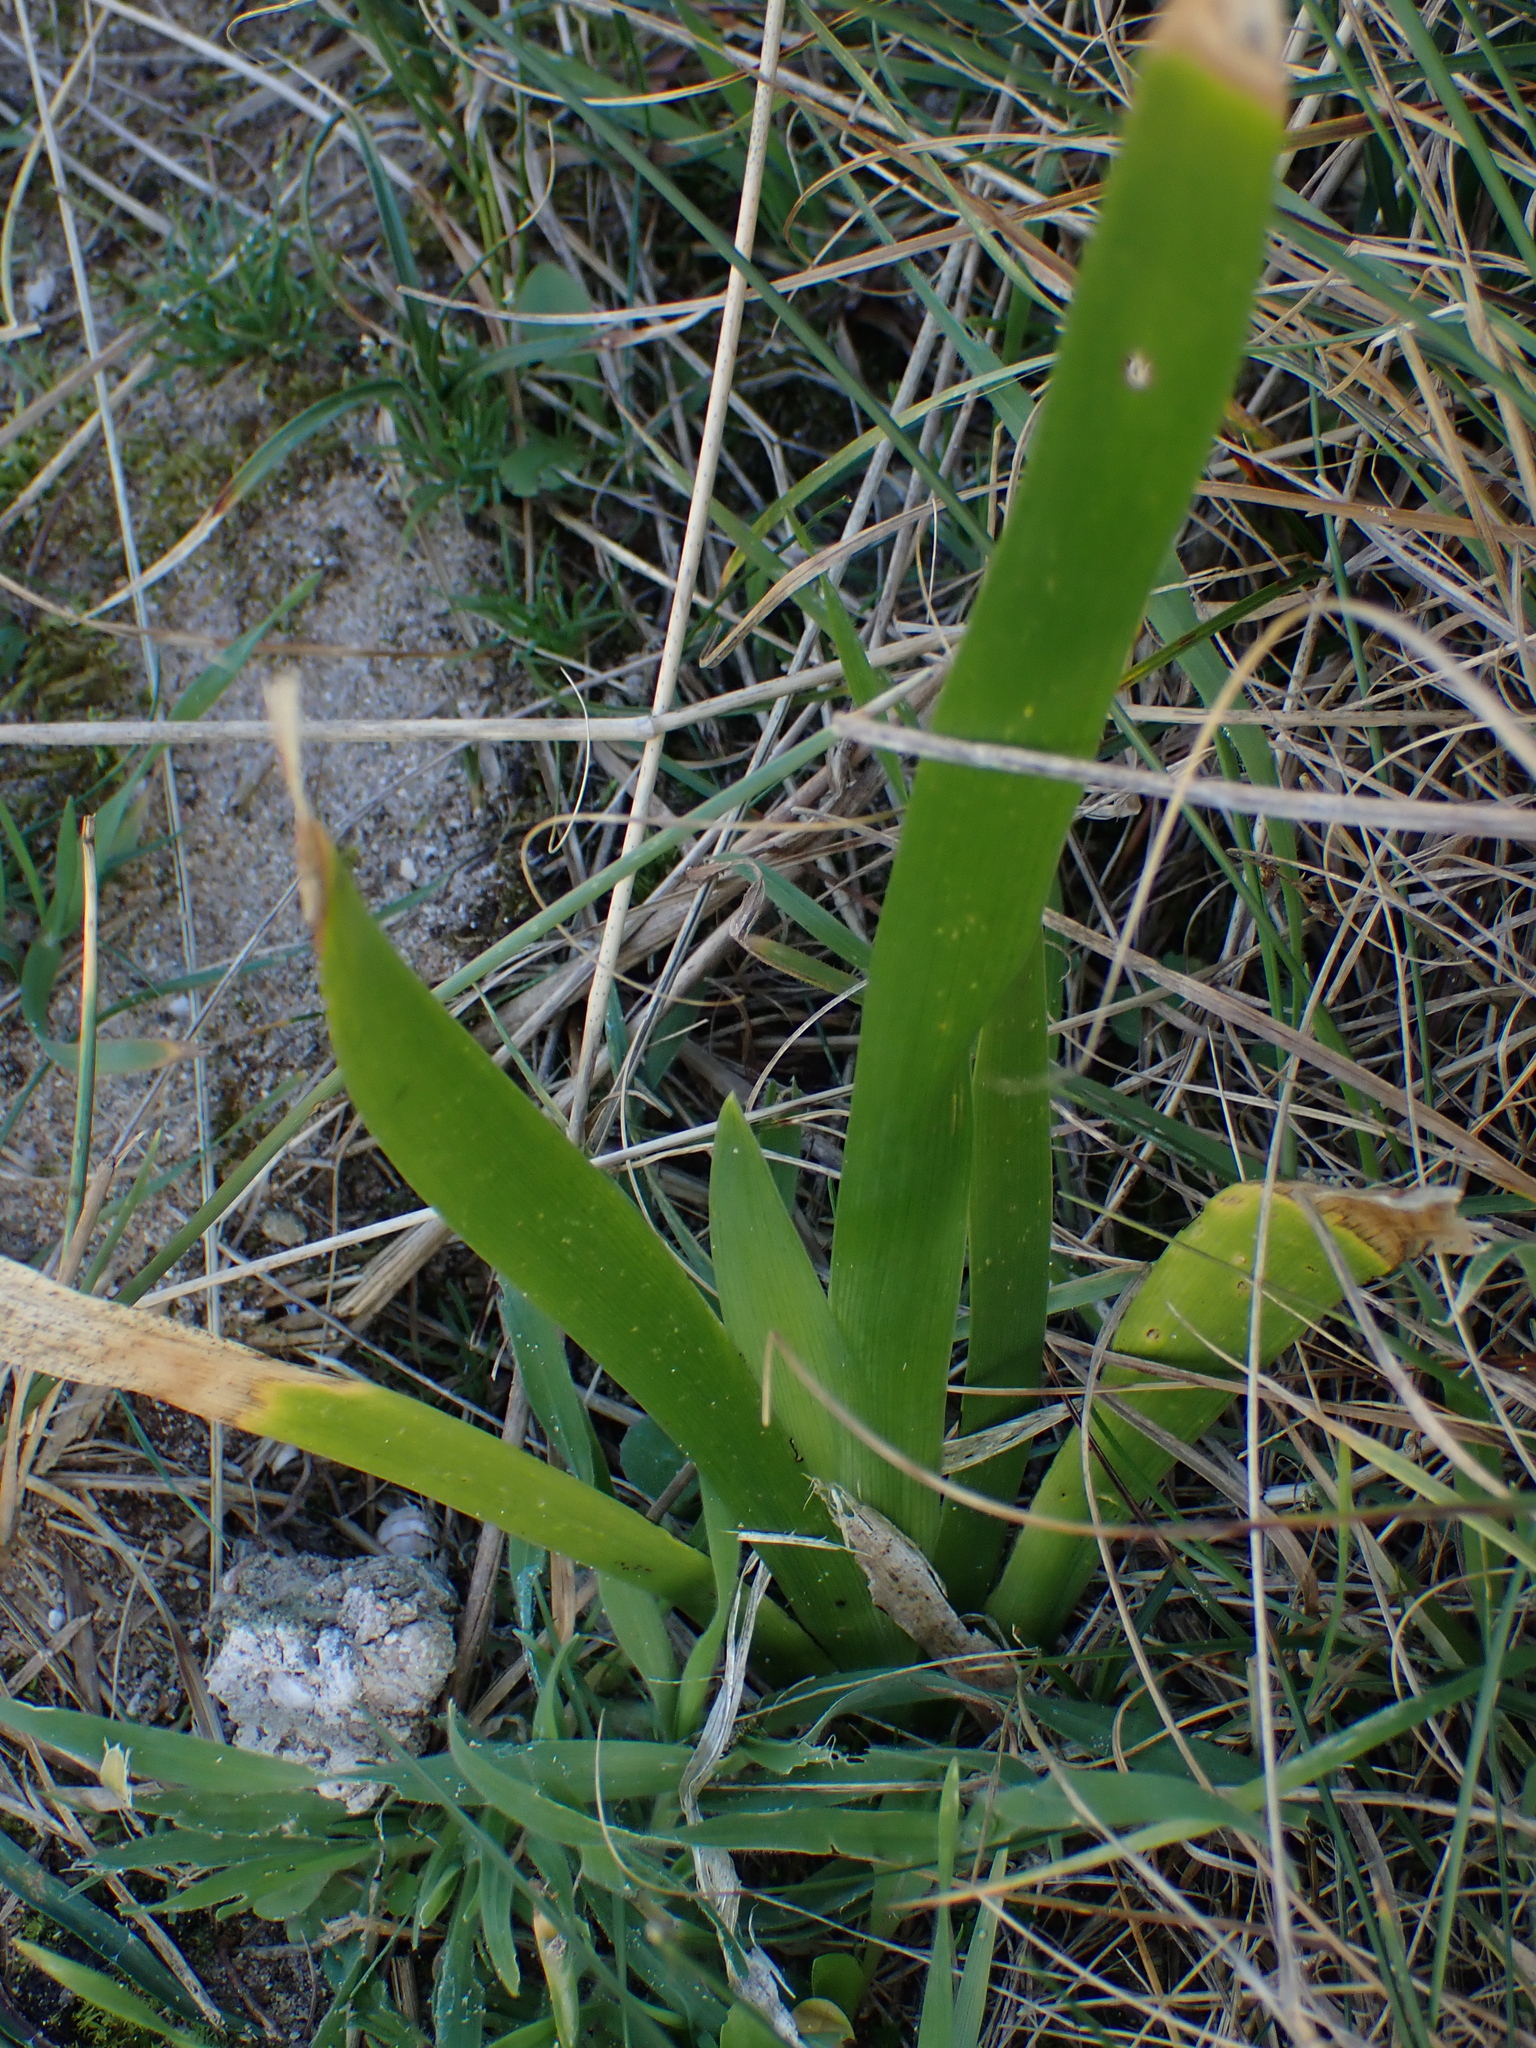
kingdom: Plantae
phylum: Tracheophyta
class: Liliopsida
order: Asparagales
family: Iridaceae
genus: Iris
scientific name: Iris foetidissima
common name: Stinking iris
